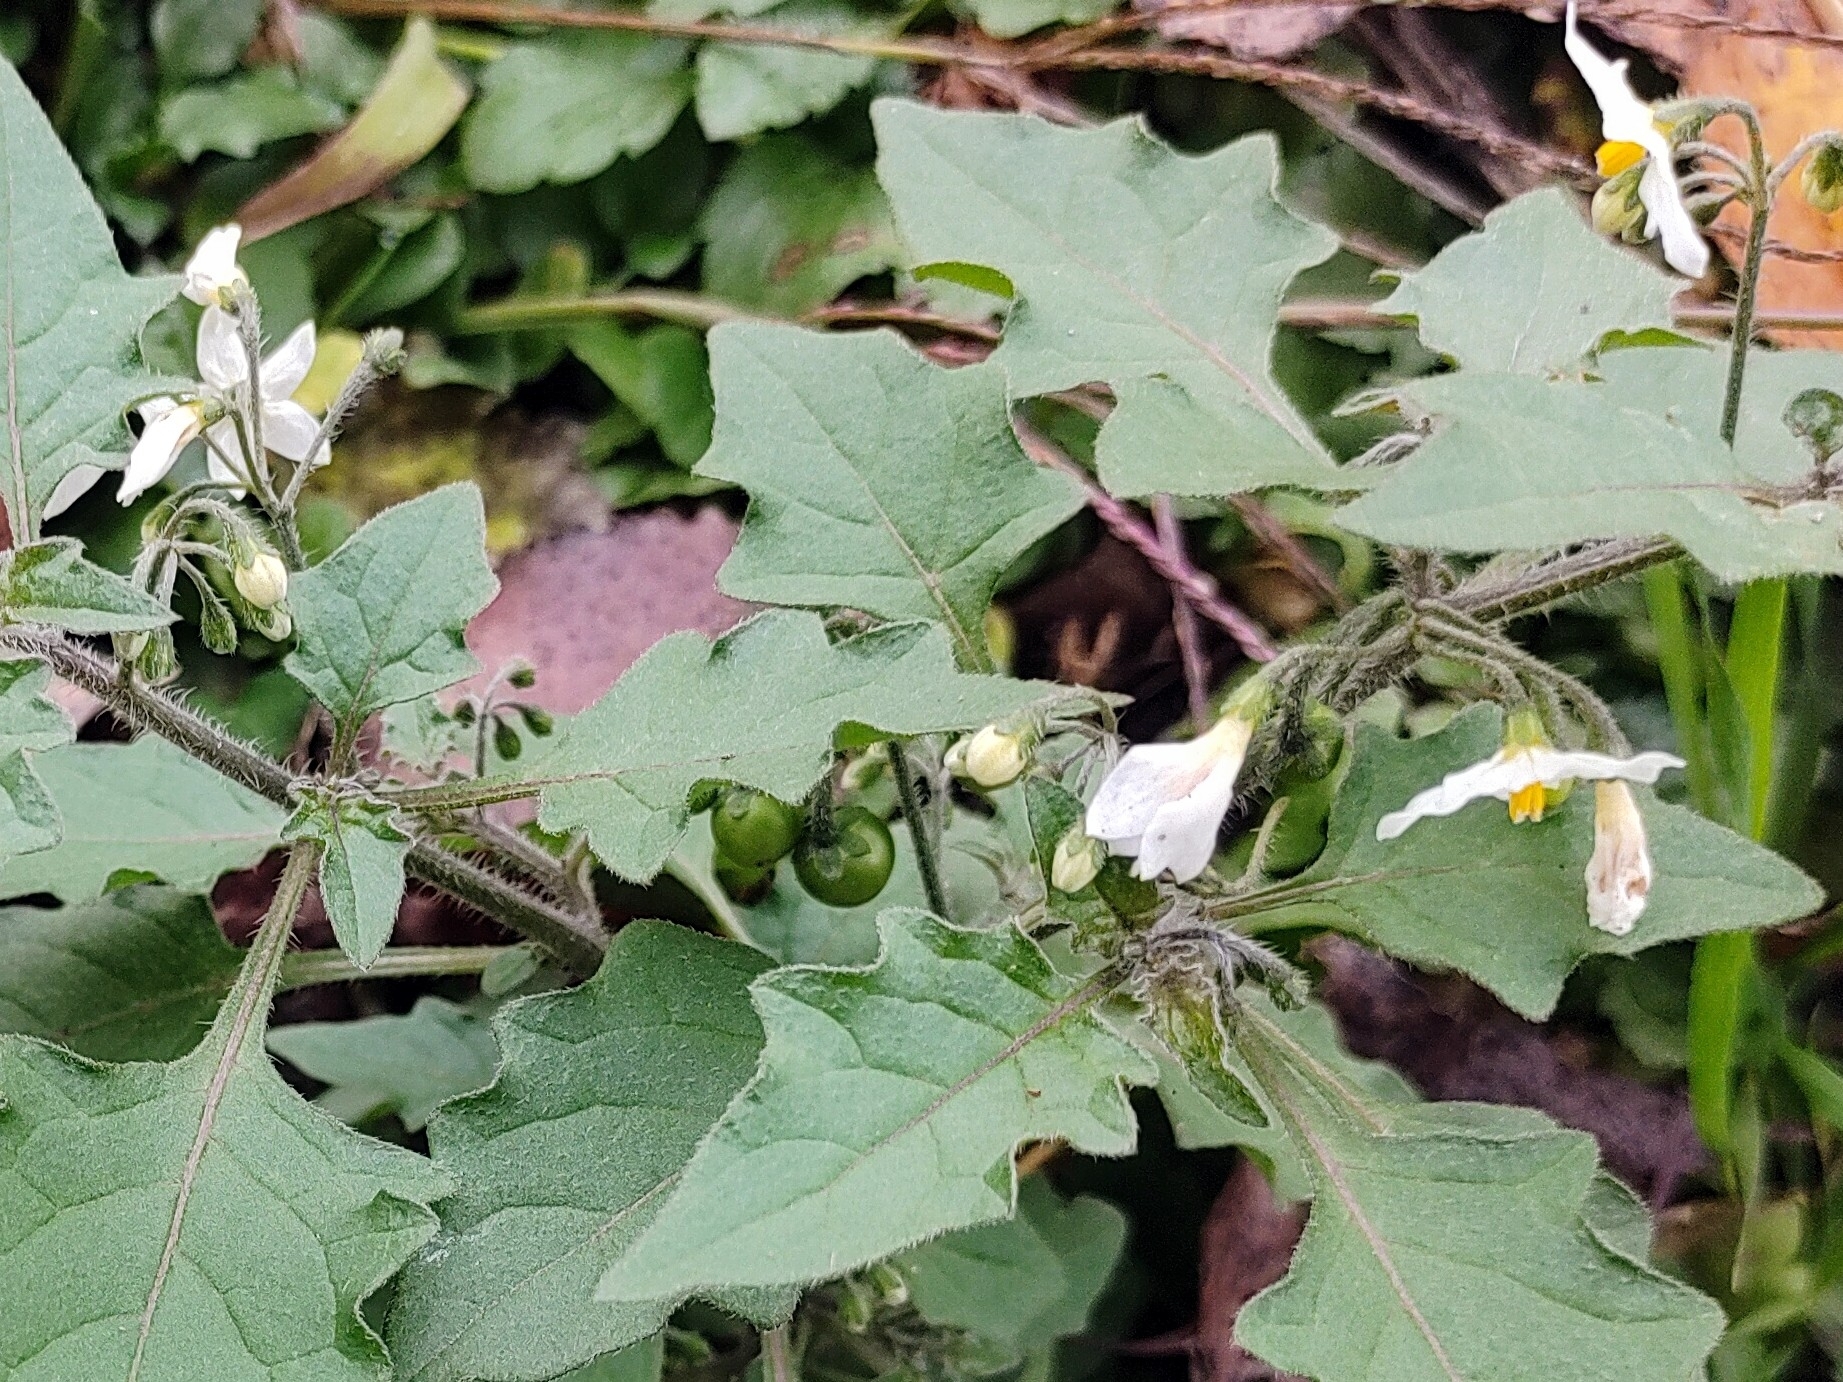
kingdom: Plantae
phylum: Tracheophyta
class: Magnoliopsida
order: Solanales
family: Solanaceae
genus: Solanum
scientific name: Solanum nigrum
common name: Black nightshade
